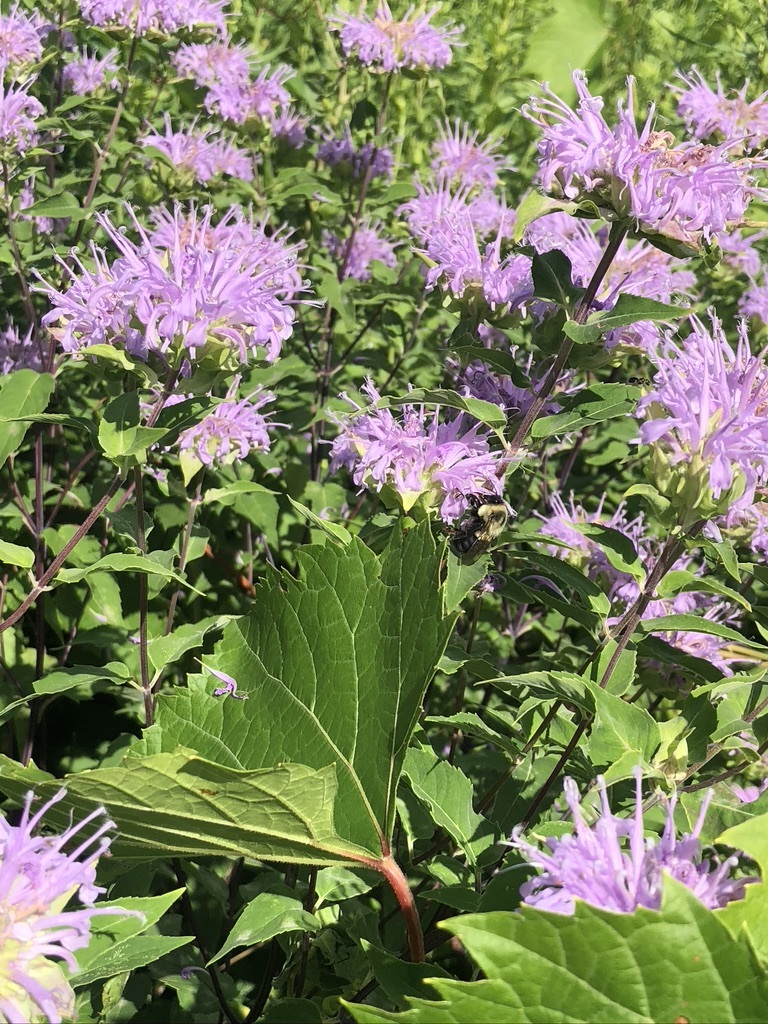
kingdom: Plantae
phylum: Tracheophyta
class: Magnoliopsida
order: Lamiales
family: Lamiaceae
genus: Monarda
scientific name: Monarda fistulosa
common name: Purple beebalm
